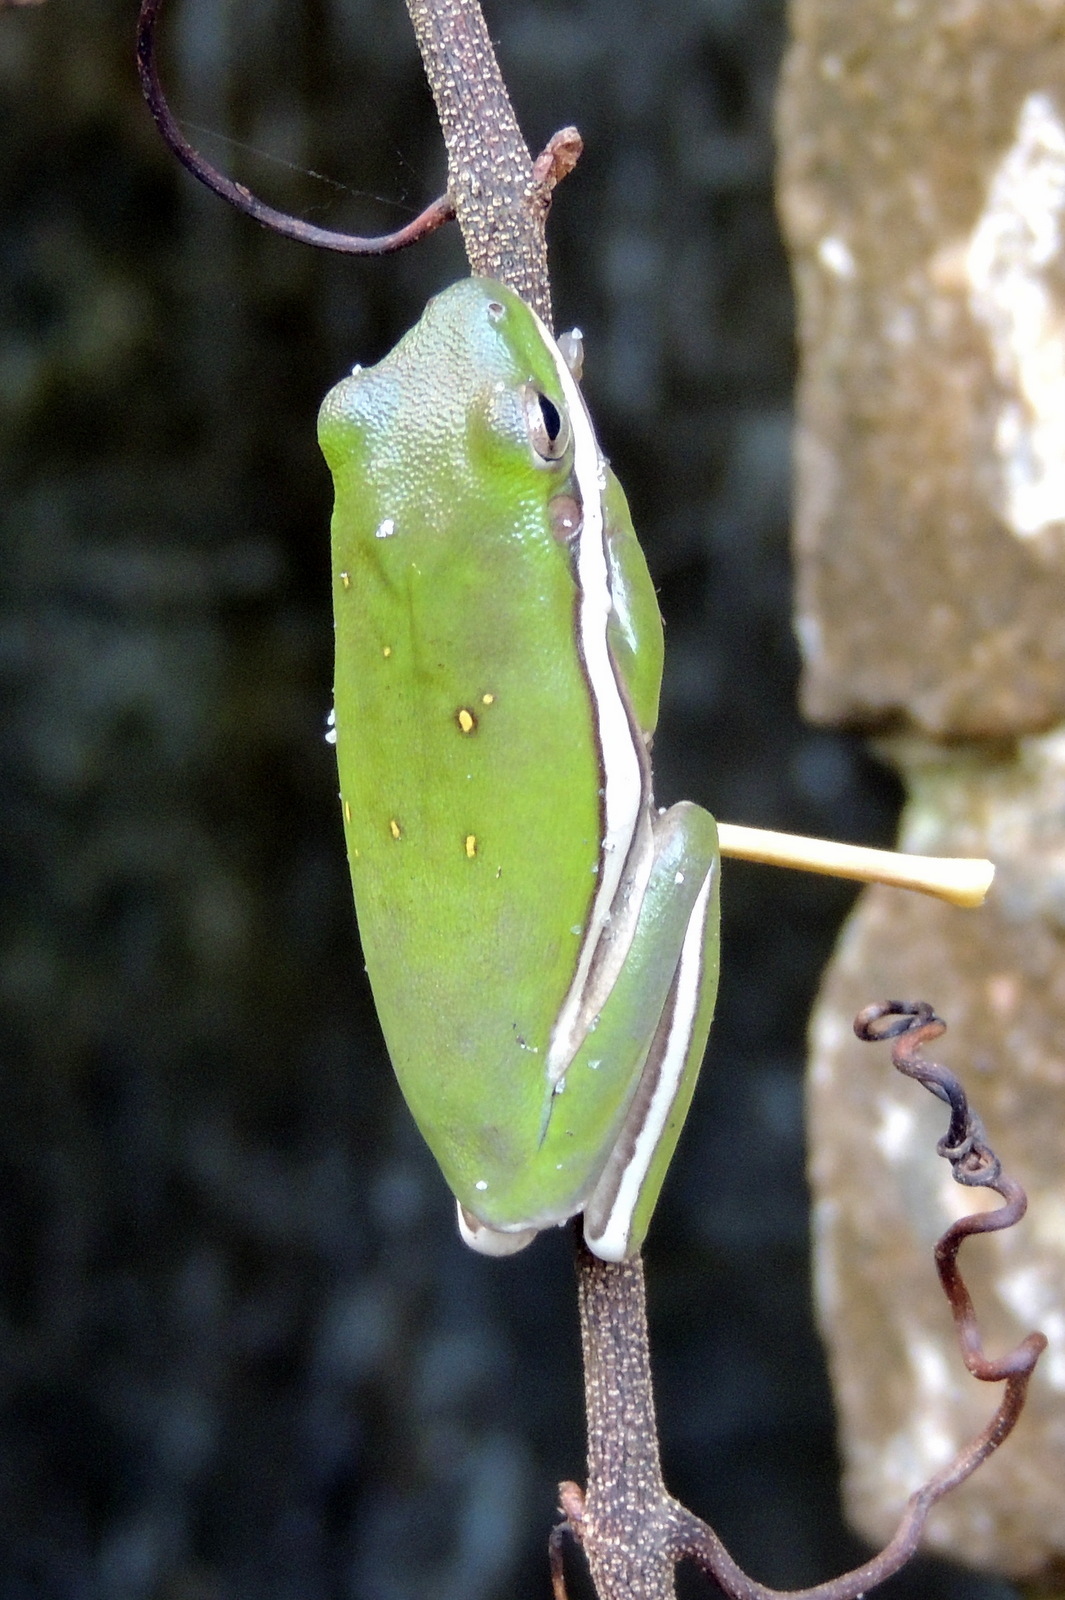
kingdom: Animalia
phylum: Chordata
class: Amphibia
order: Anura
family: Hylidae
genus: Dryophytes
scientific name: Dryophytes cinereus
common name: Green treefrog
